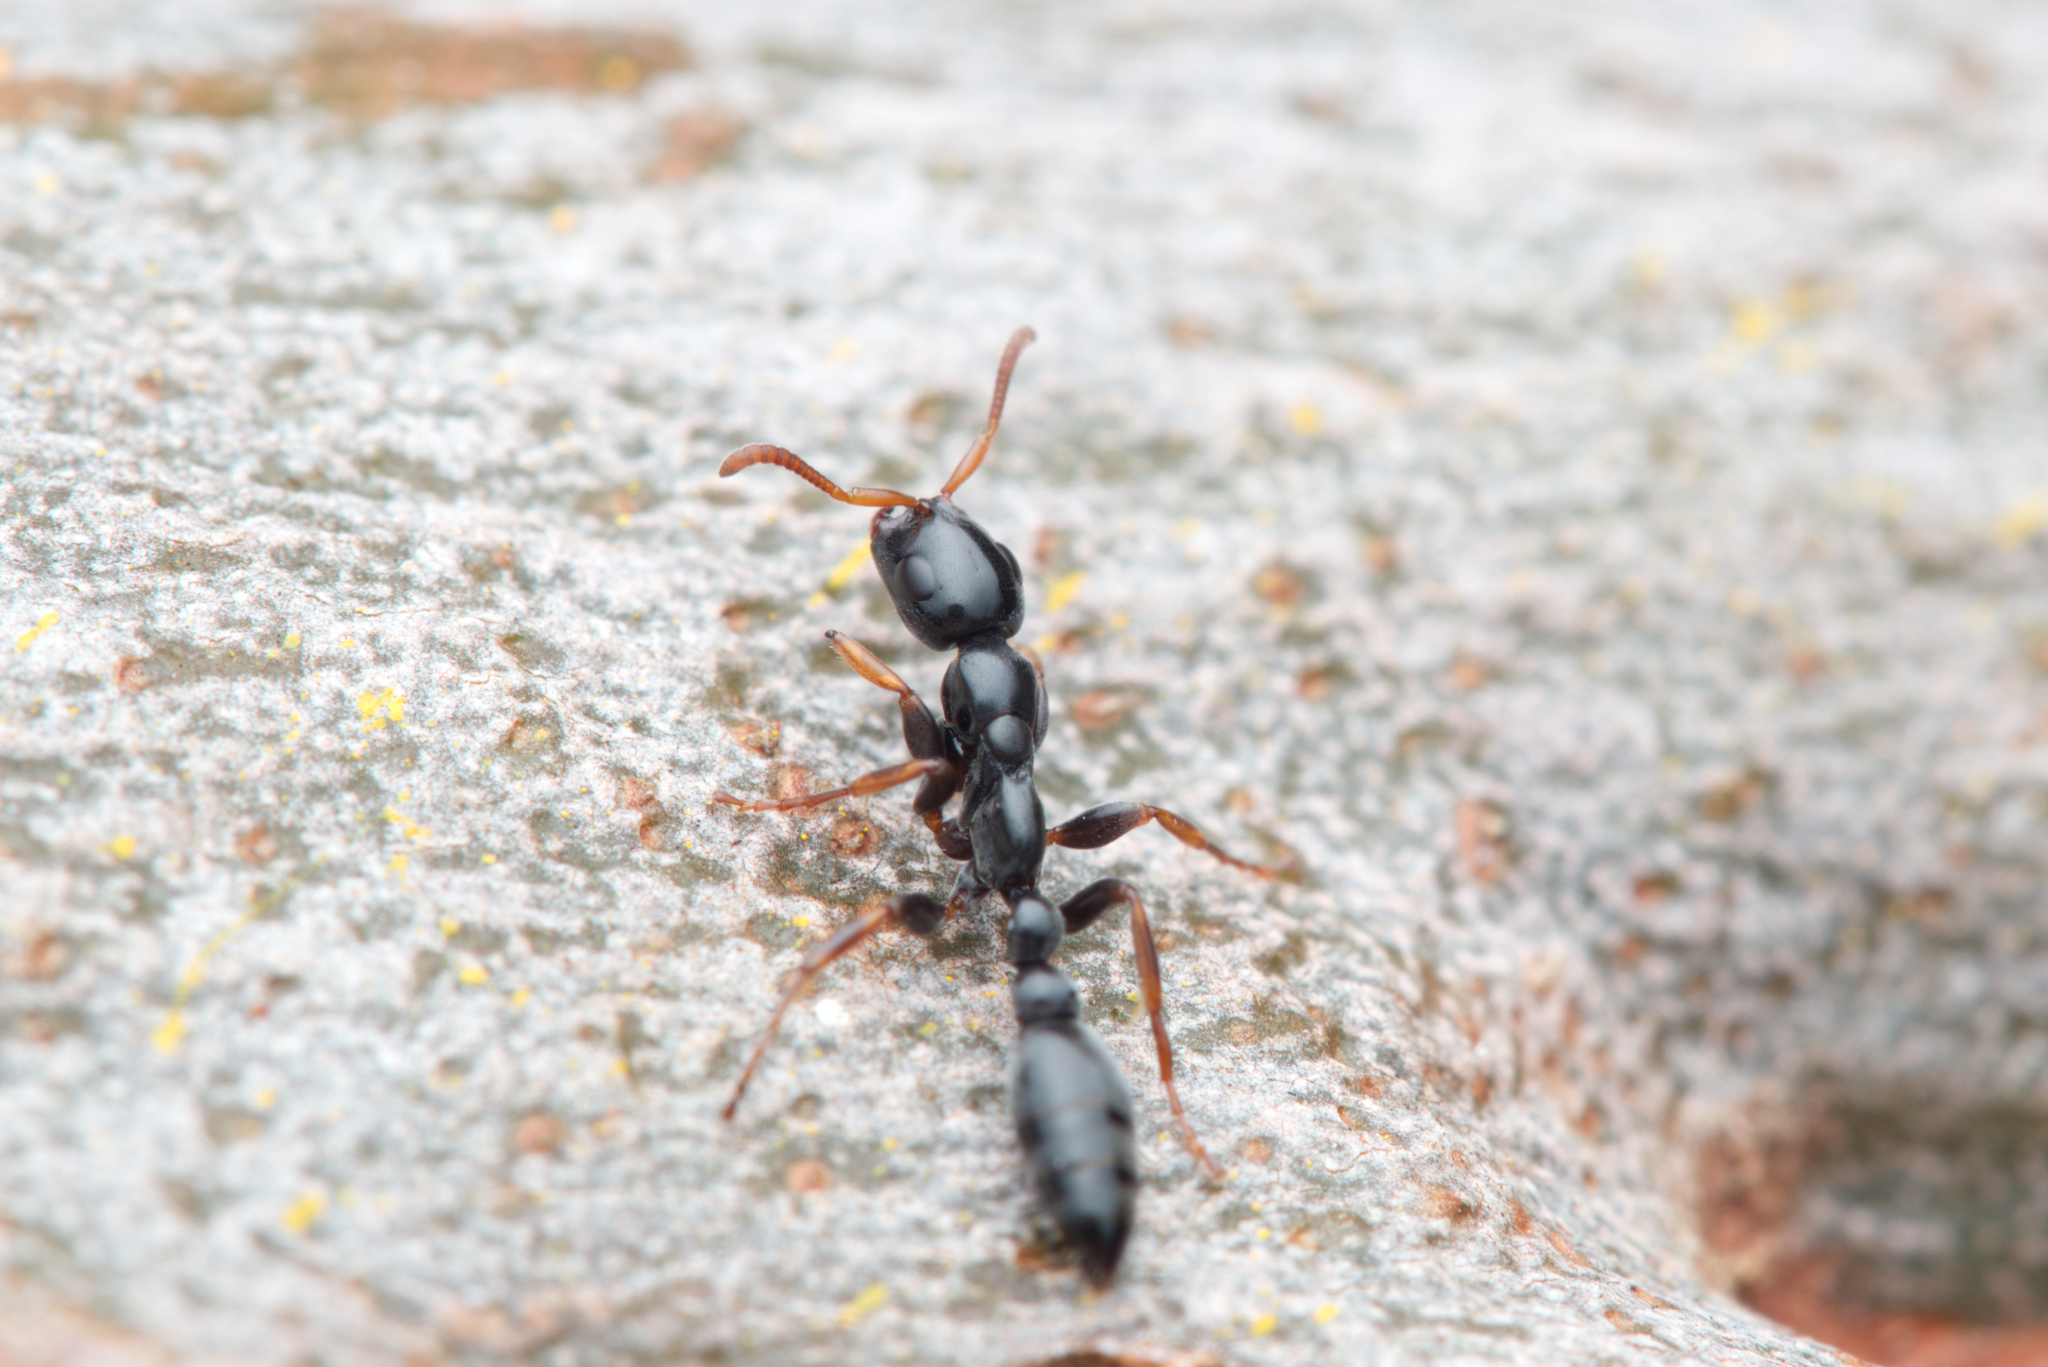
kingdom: Animalia
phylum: Arthropoda
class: Insecta
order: Hymenoptera
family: Formicidae
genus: Tetraponera
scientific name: Tetraponera punctulata
